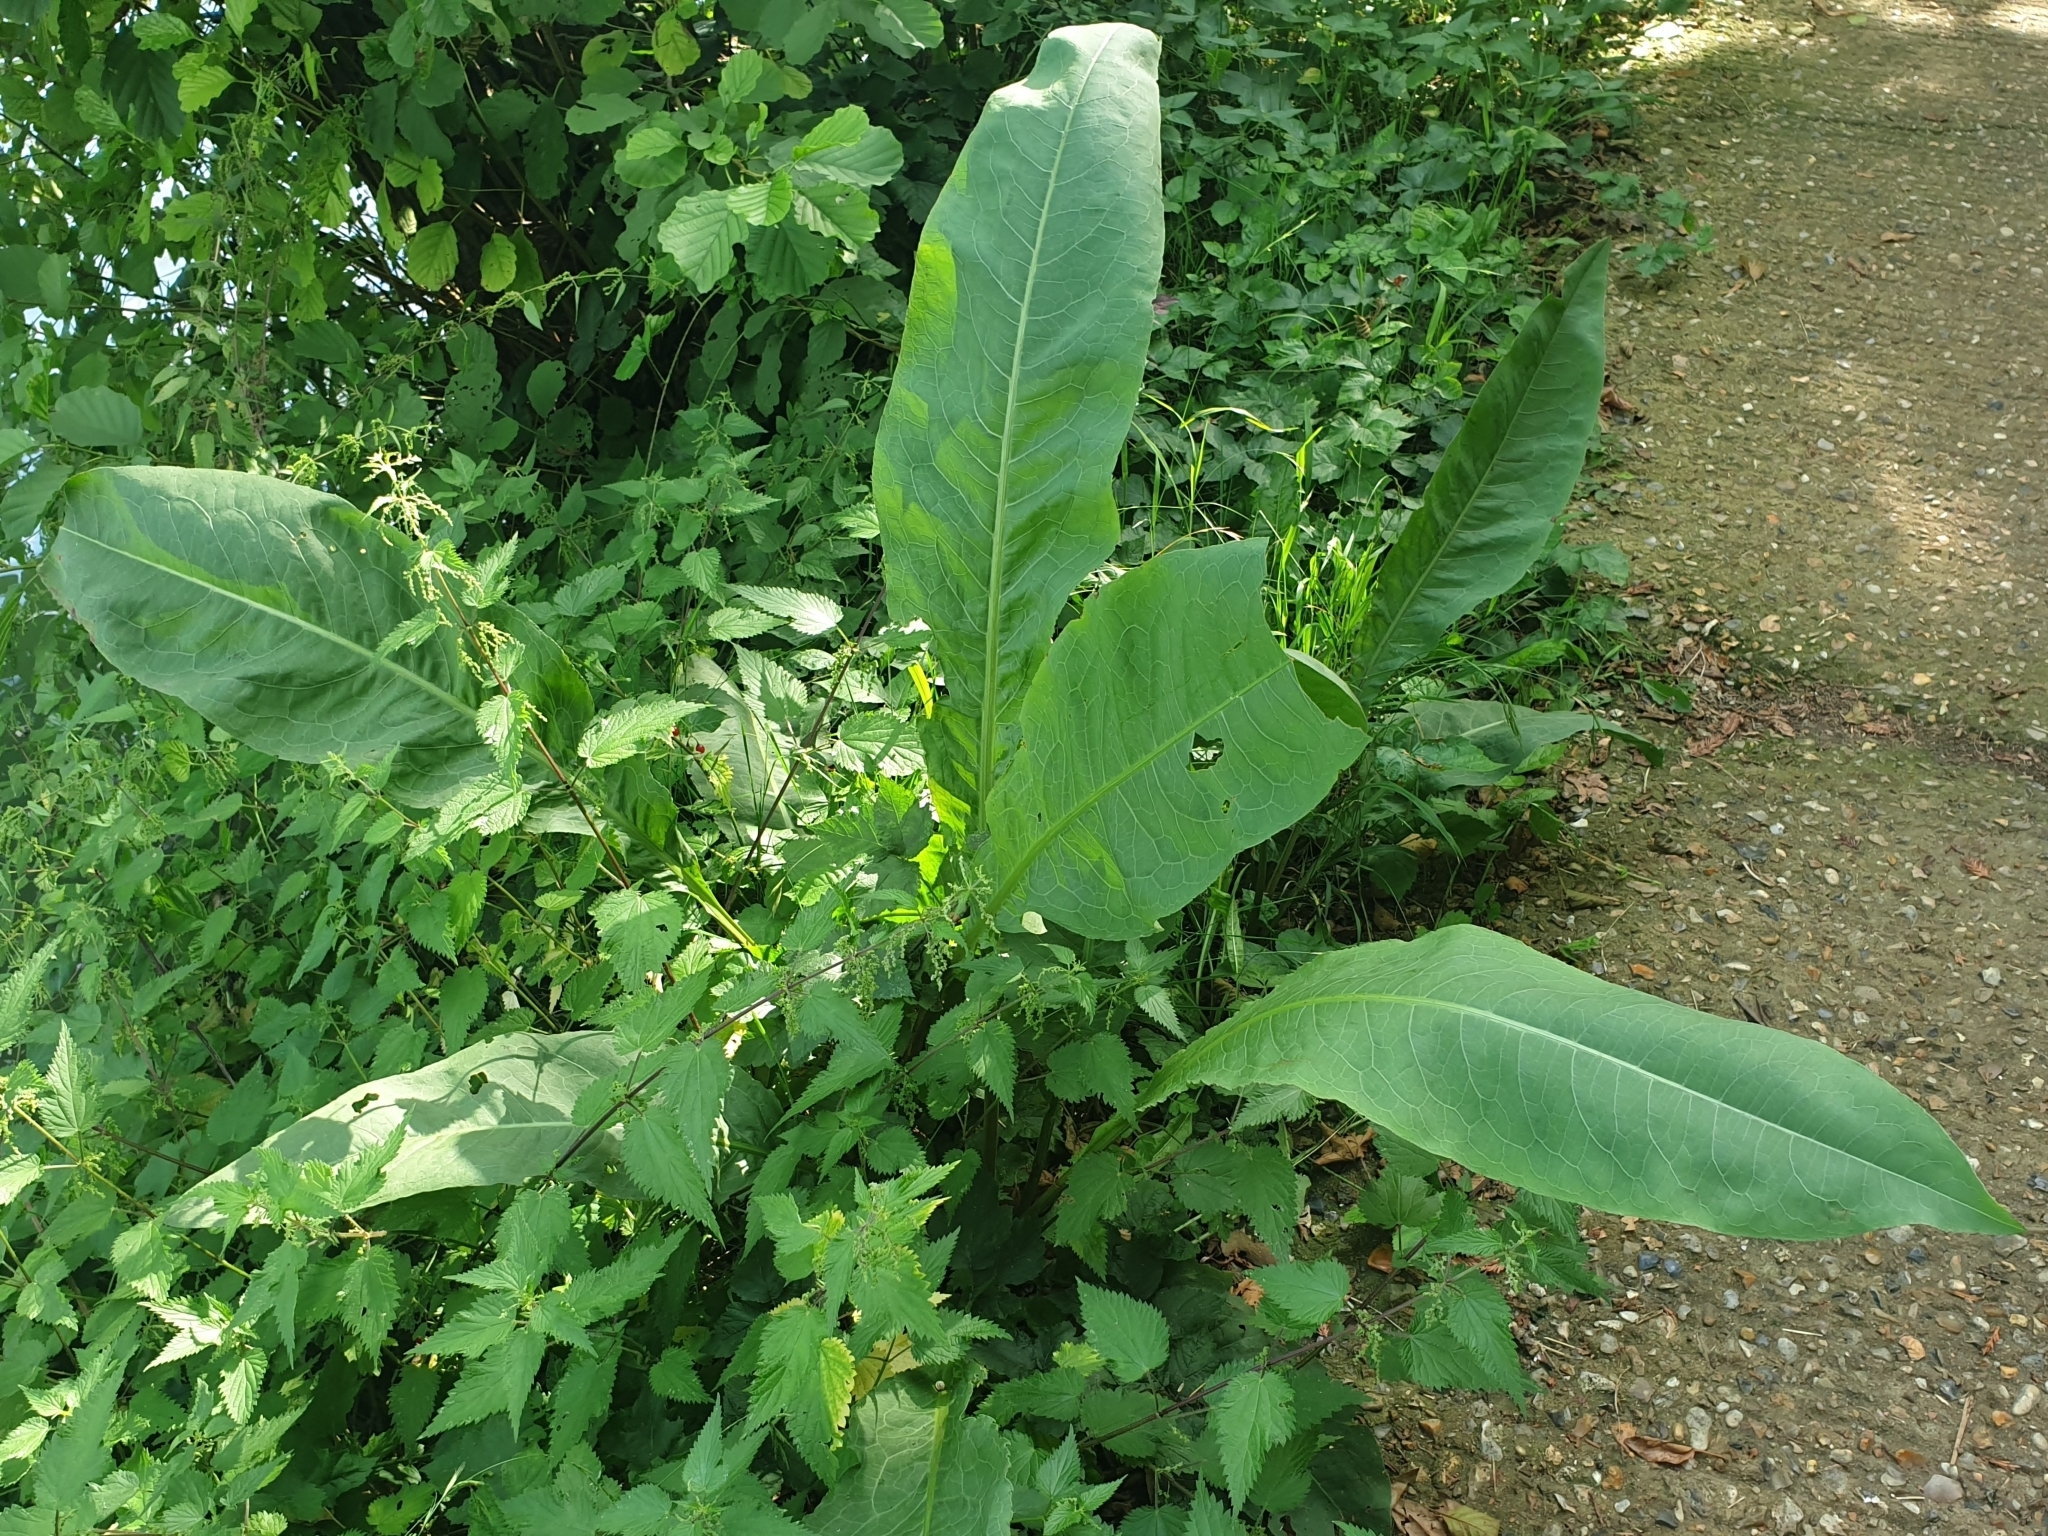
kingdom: Plantae
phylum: Tracheophyta
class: Magnoliopsida
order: Caryophyllales
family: Polygonaceae
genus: Rumex
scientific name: Rumex hydrolapathum
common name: Water dock
